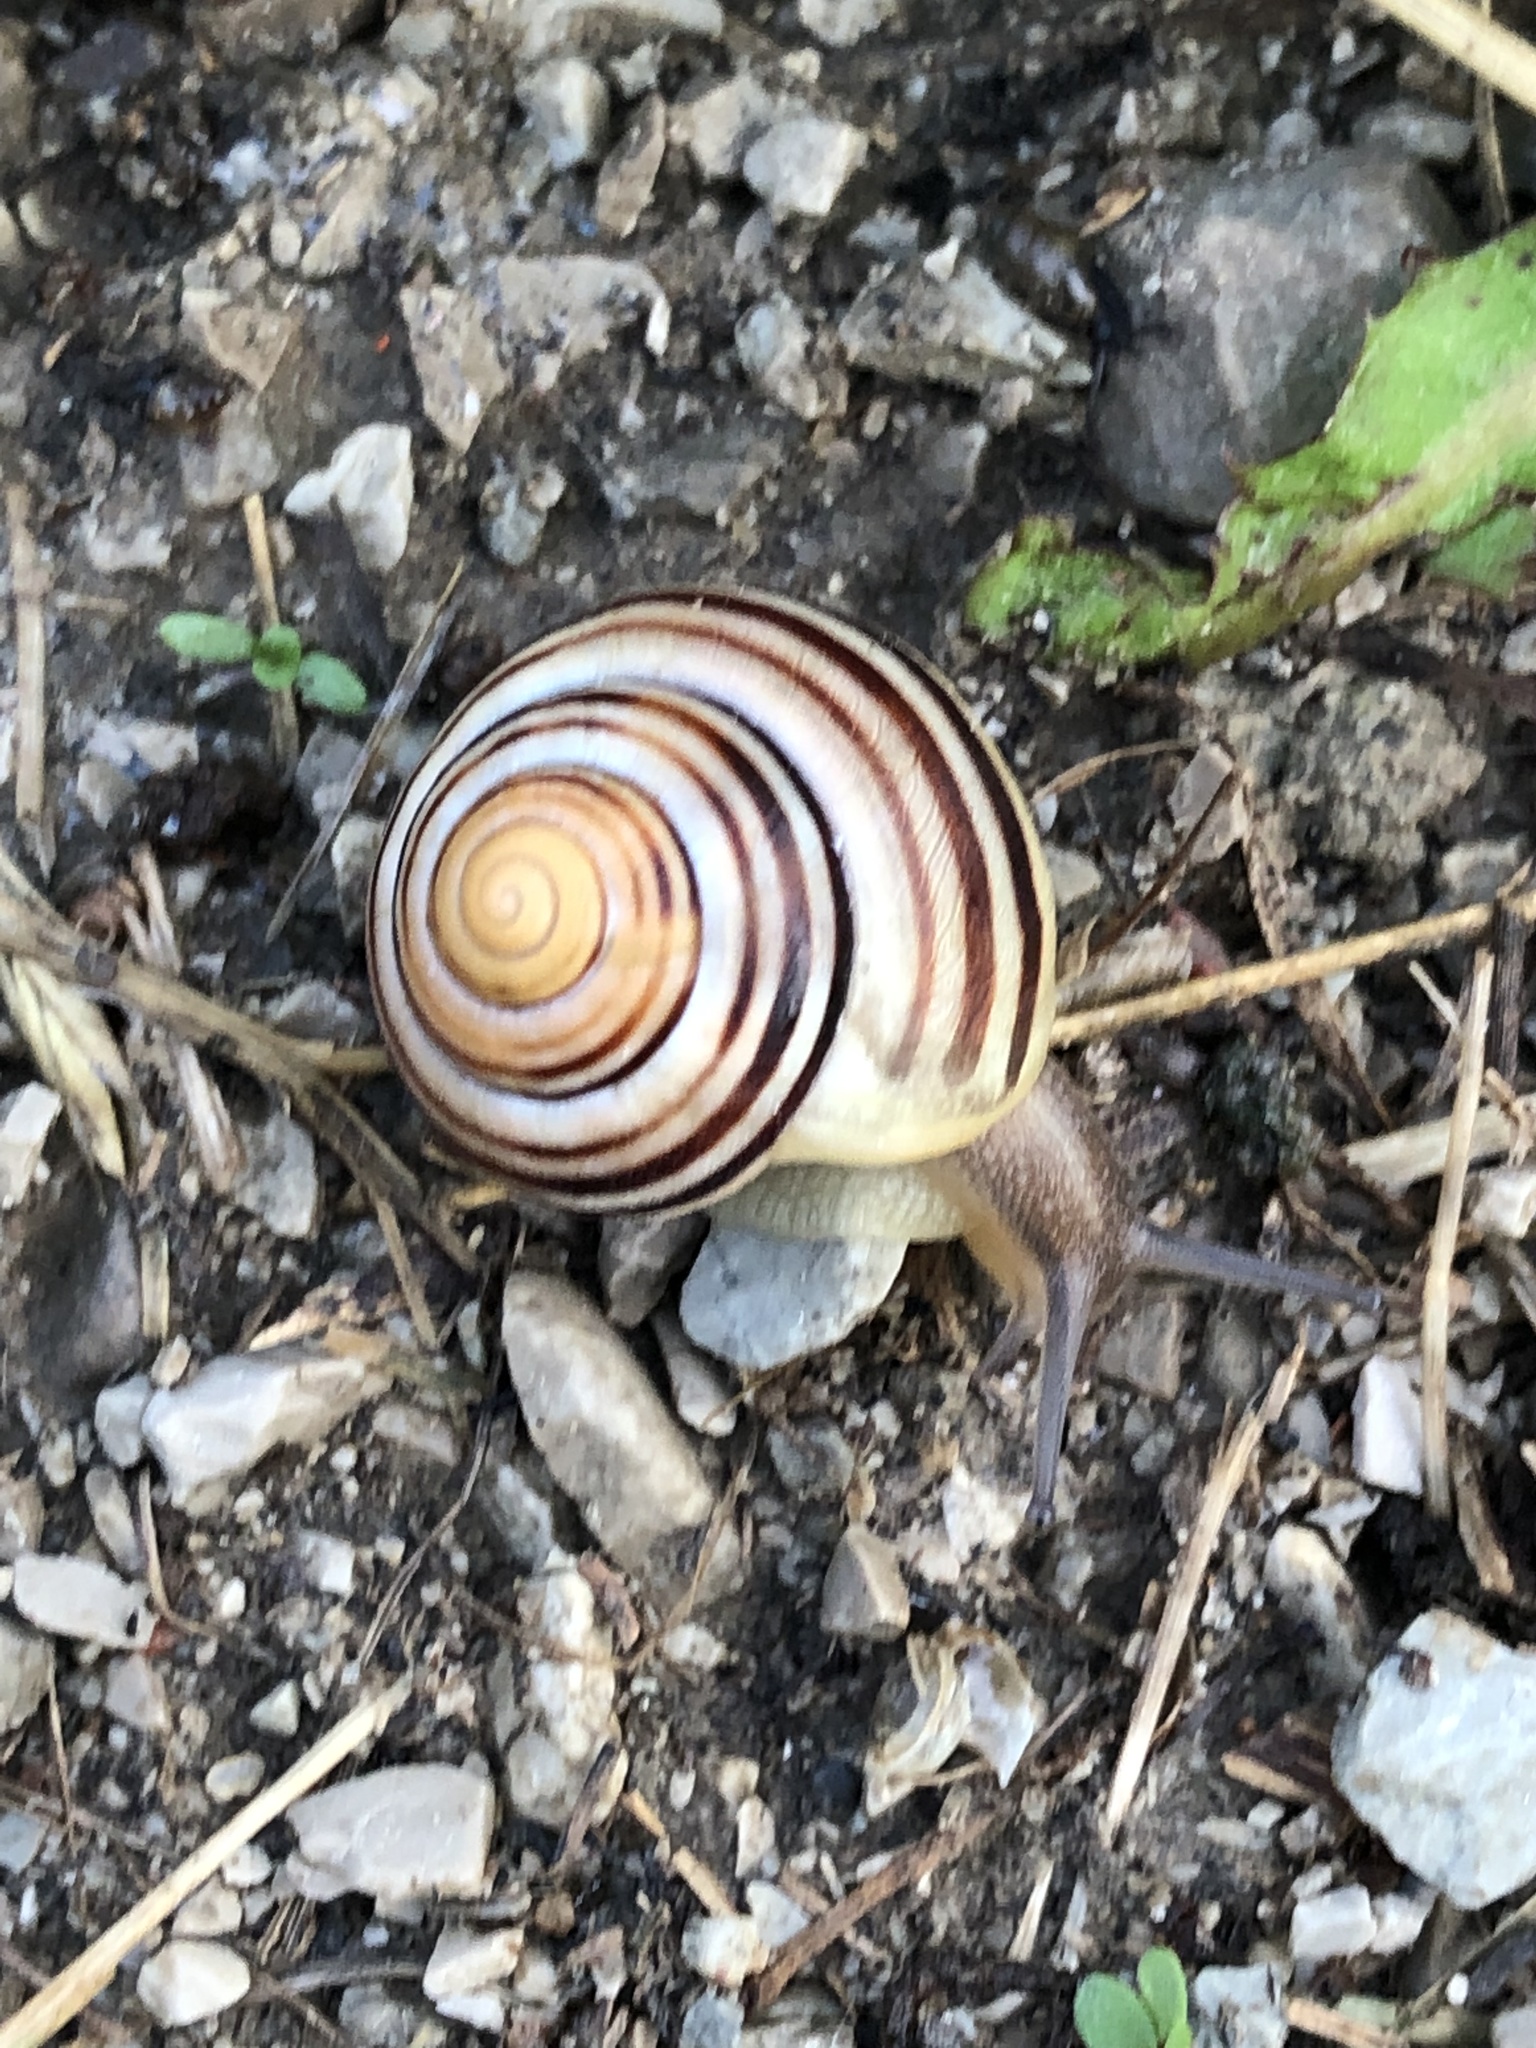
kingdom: Animalia
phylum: Mollusca
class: Gastropoda
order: Stylommatophora
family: Helicidae
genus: Cepaea
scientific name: Cepaea
